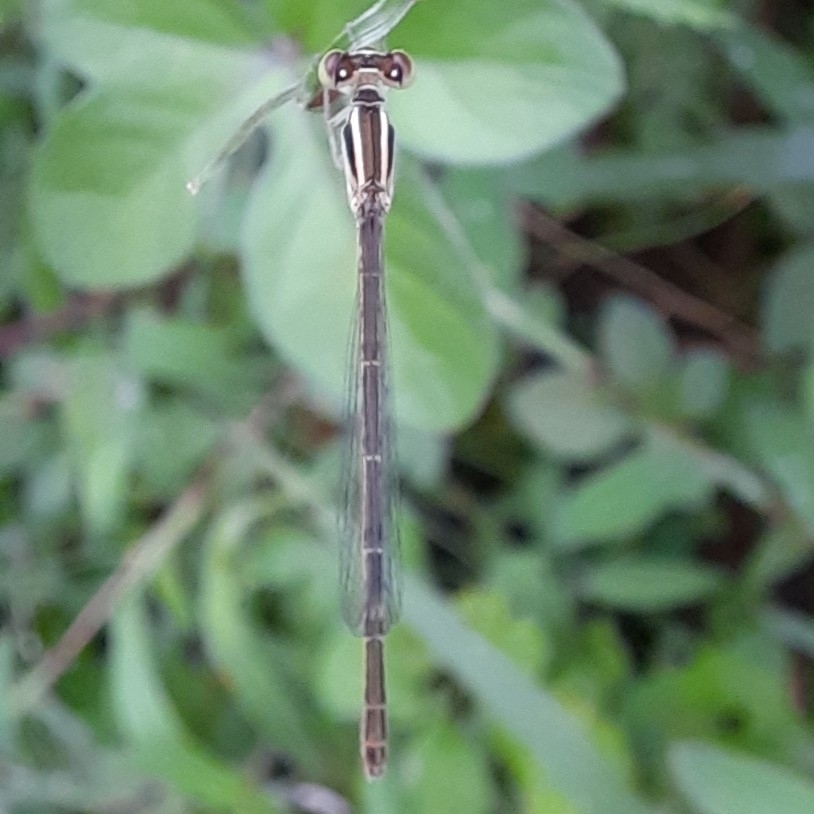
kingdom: Animalia
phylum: Arthropoda
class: Insecta
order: Odonata
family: Coenagrionidae
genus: Agriocnemis
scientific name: Agriocnemis pygmaea
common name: Pygmy wisp
